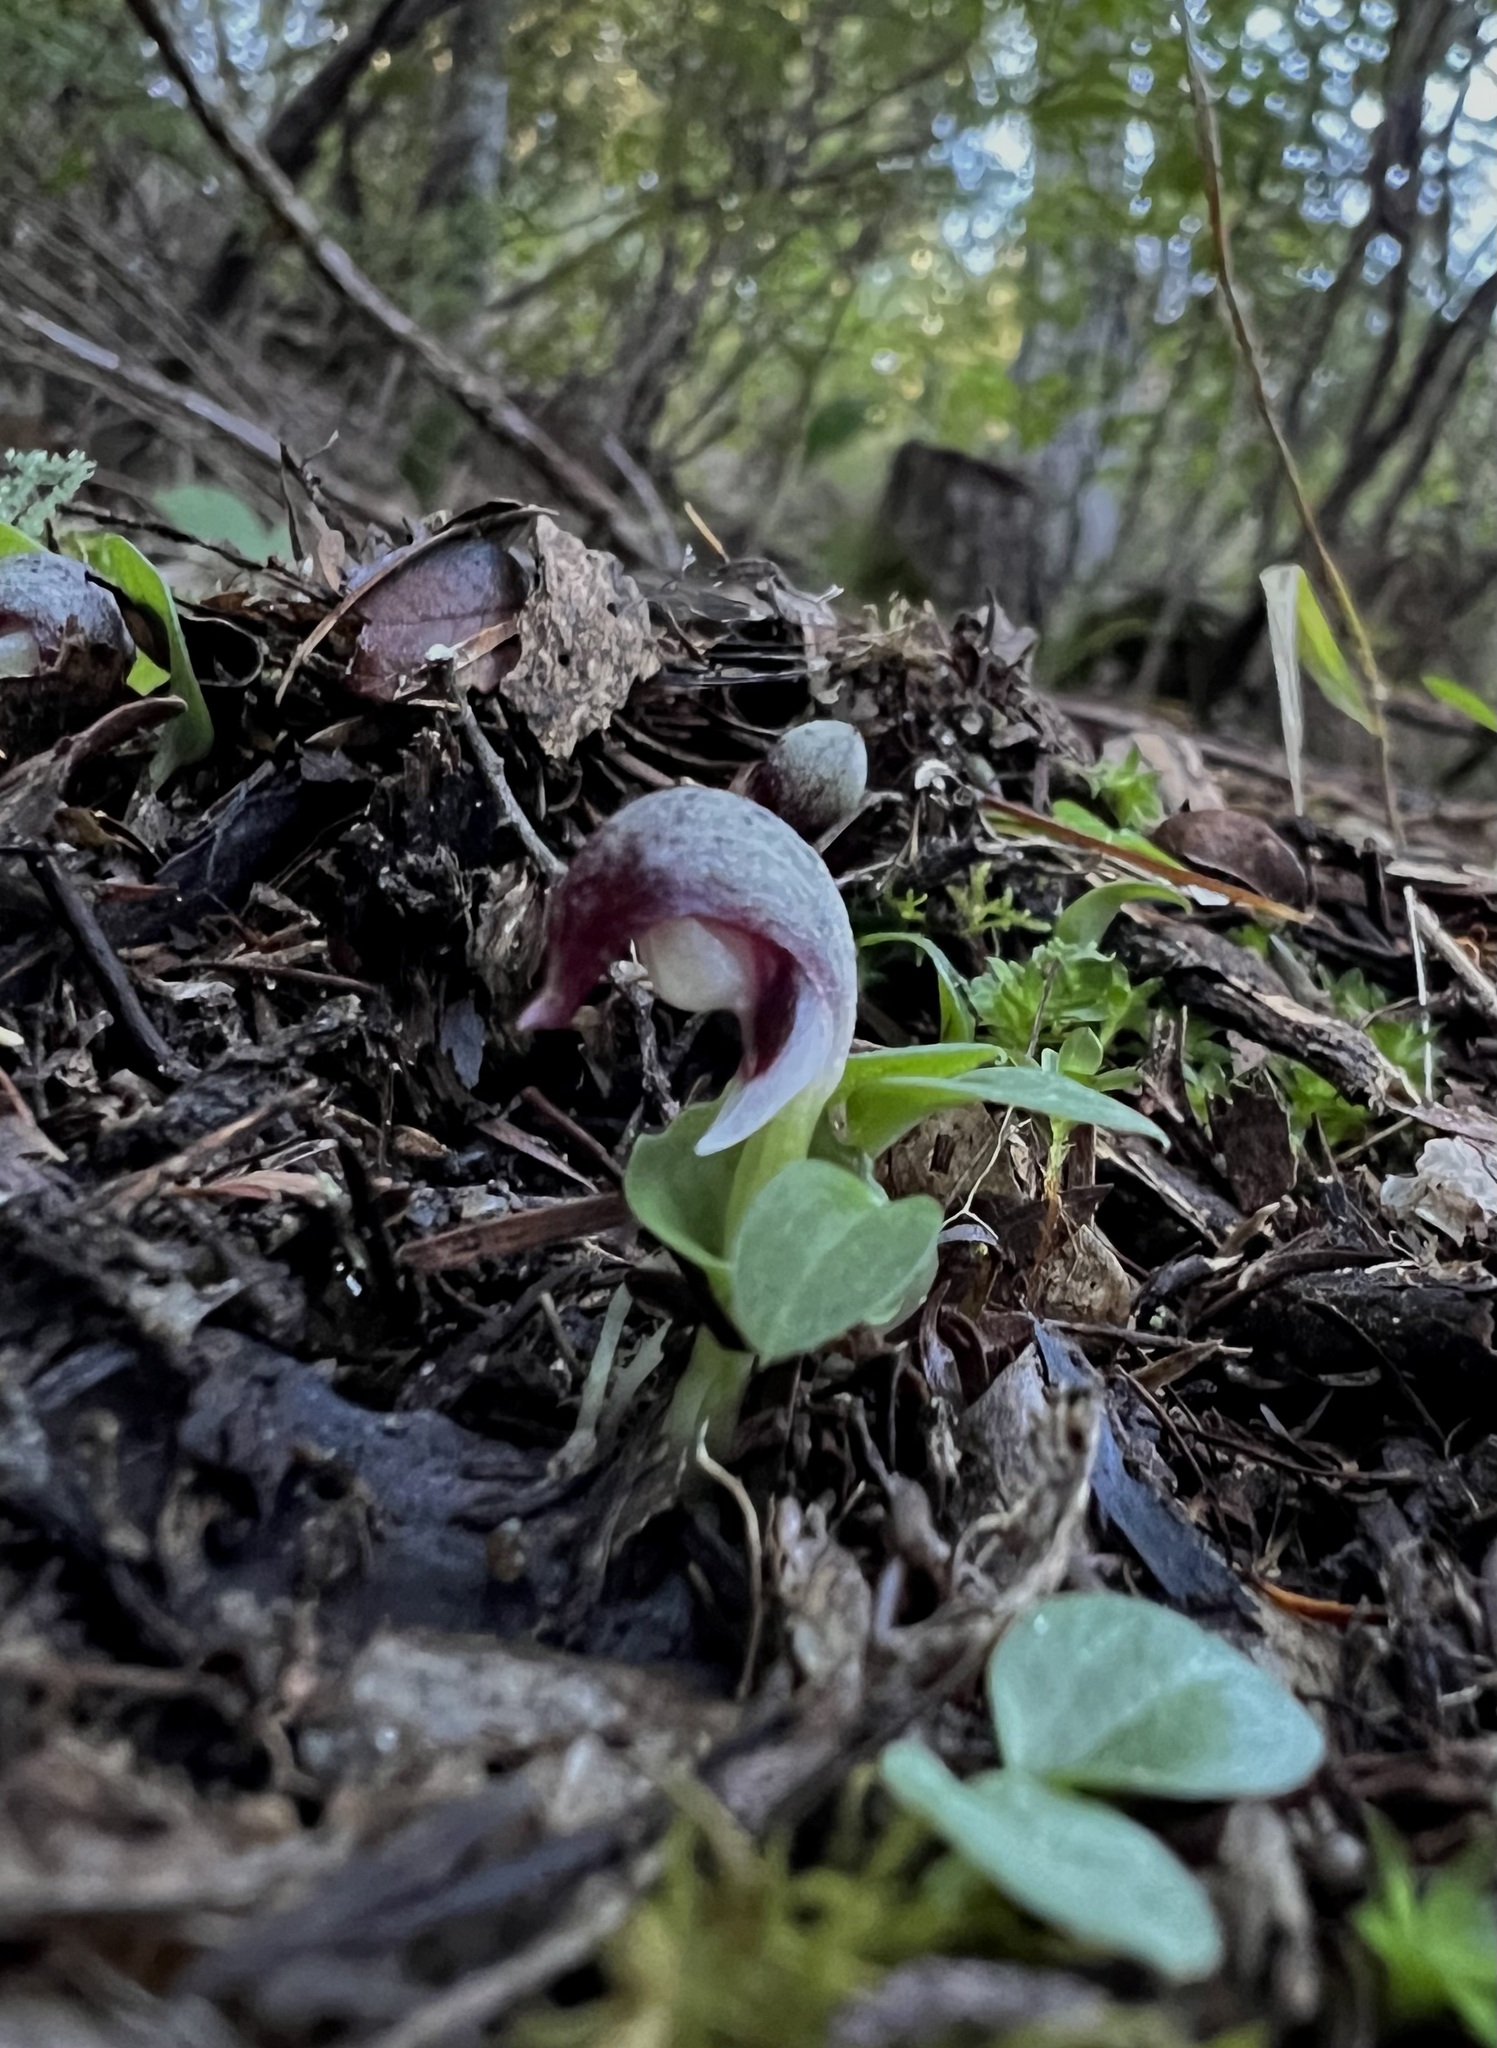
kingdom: Plantae
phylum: Tracheophyta
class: Liliopsida
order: Asparagales
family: Orchidaceae
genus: Corybas
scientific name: Corybas cheesemanii
